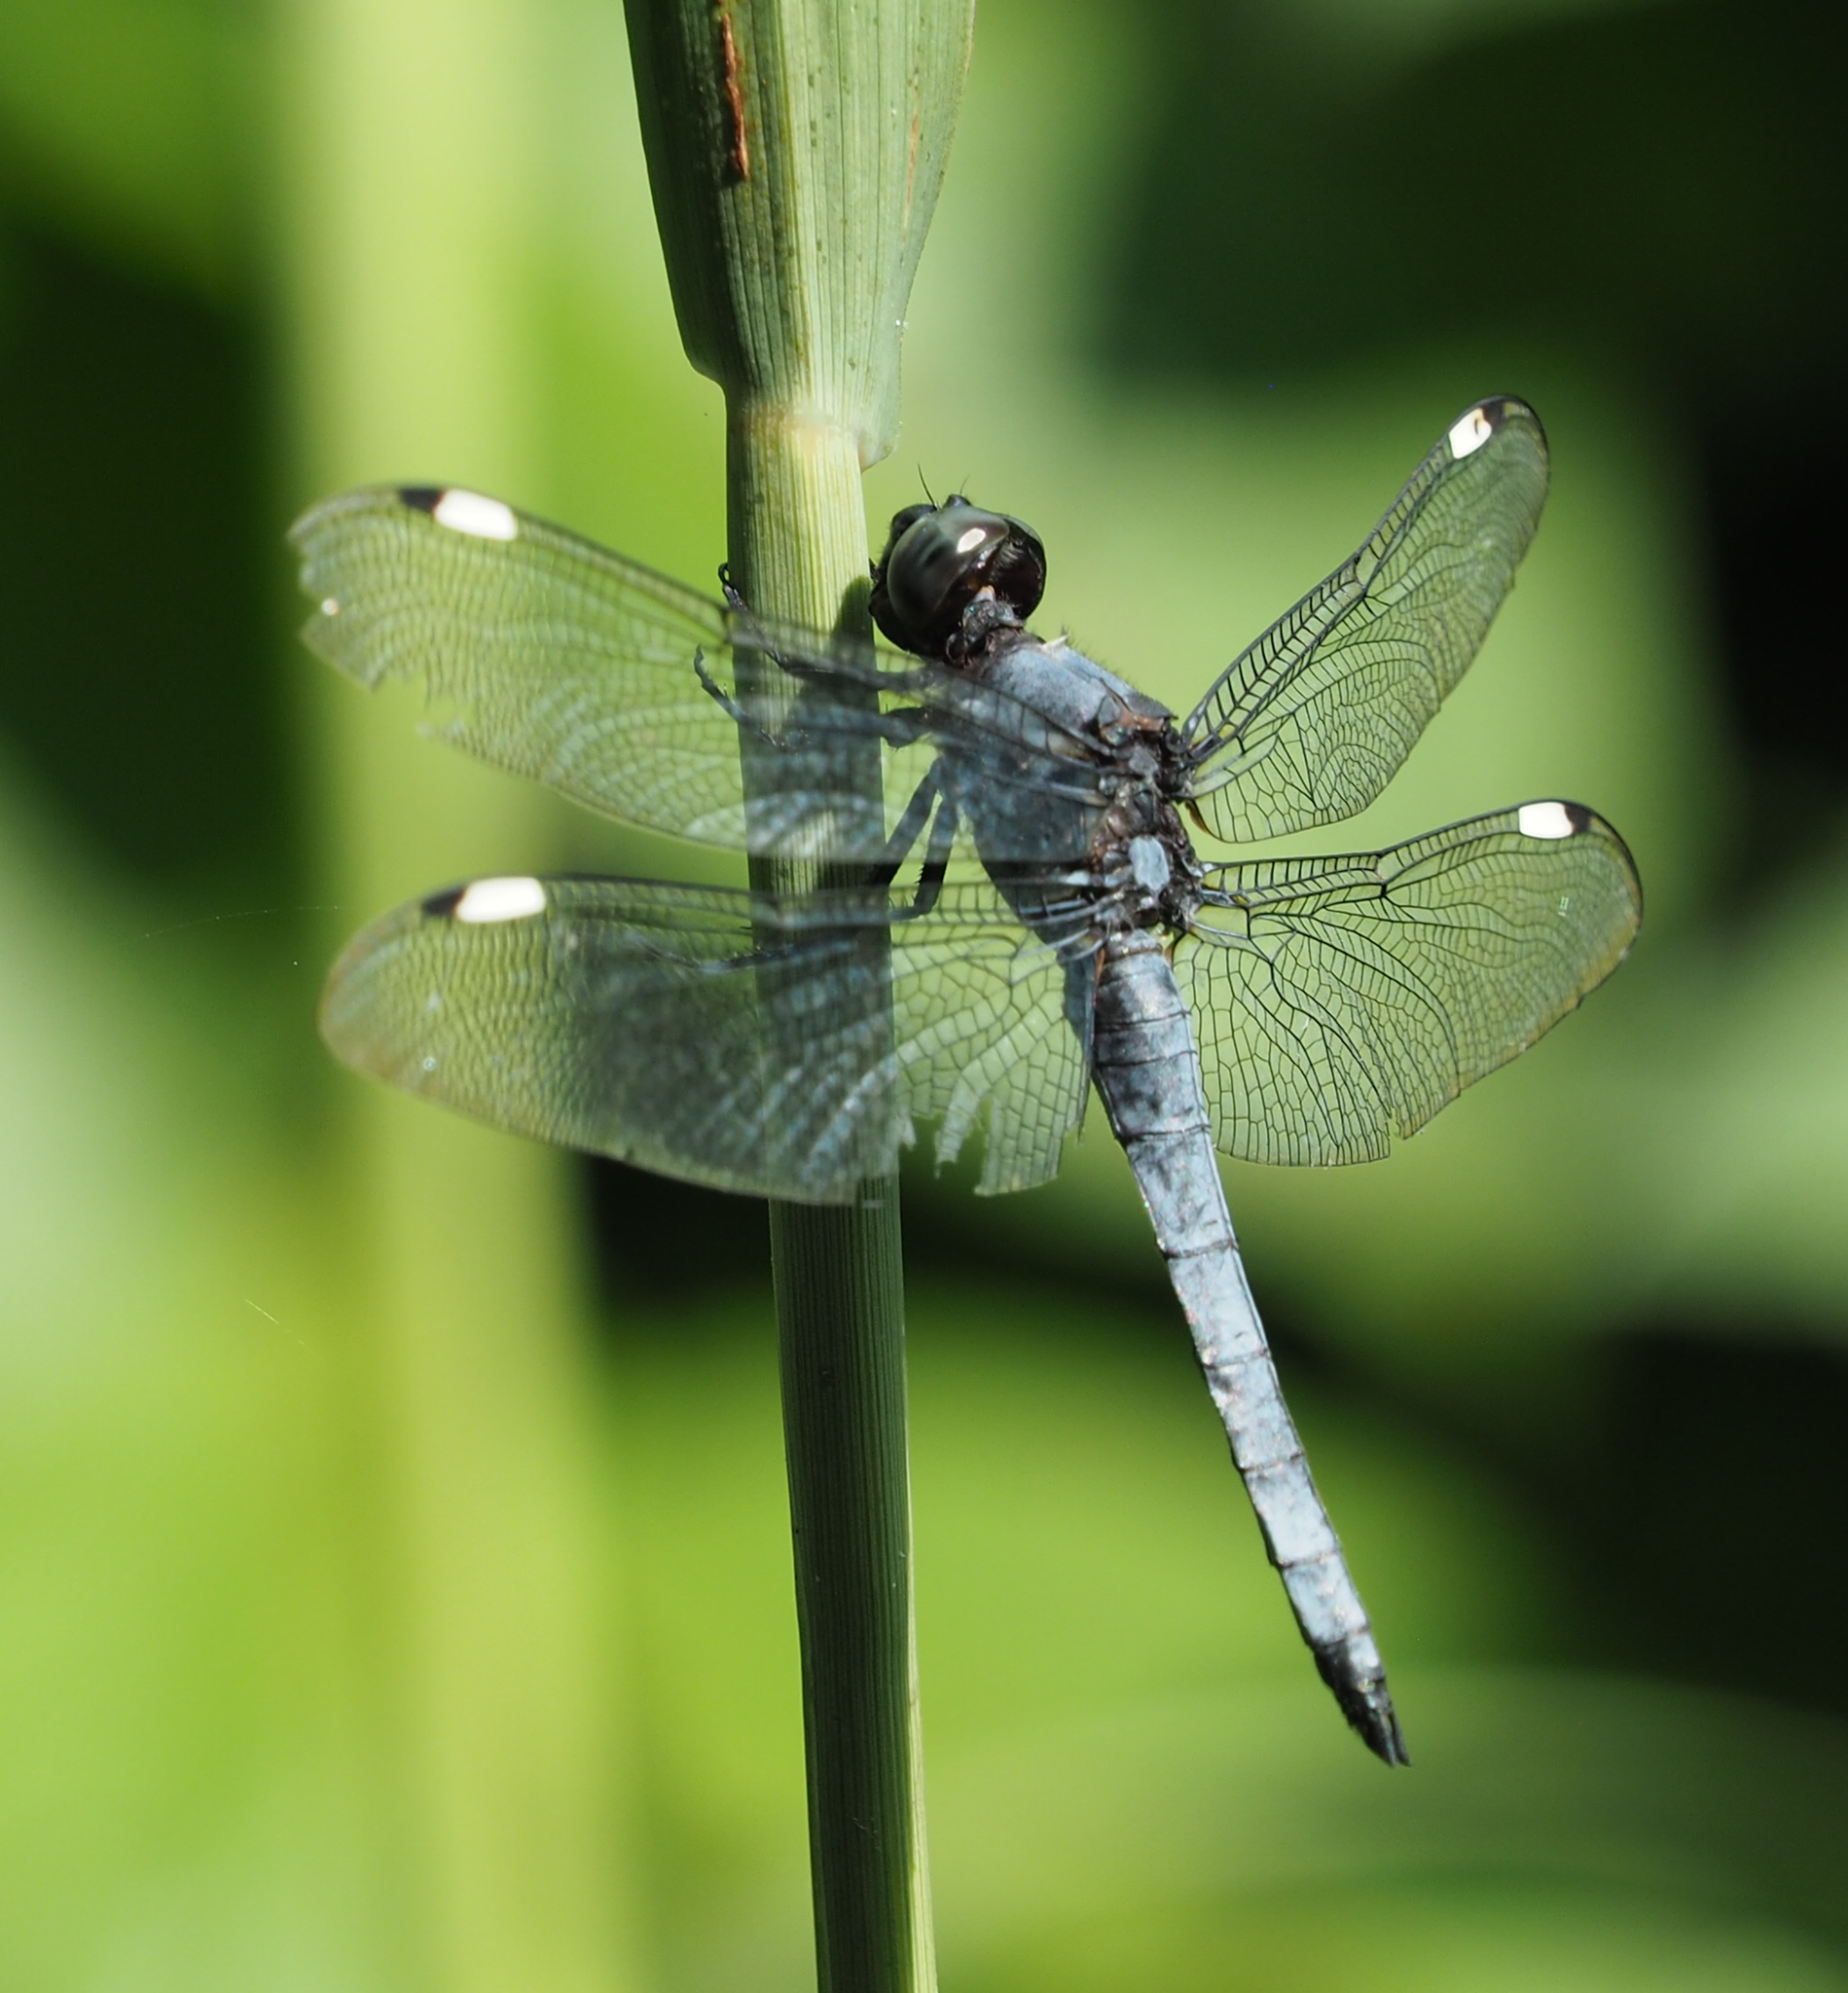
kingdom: Animalia
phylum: Arthropoda
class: Insecta
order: Odonata
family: Libellulidae
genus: Libellula
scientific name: Libellula cyanea
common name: Spangled skimmer
